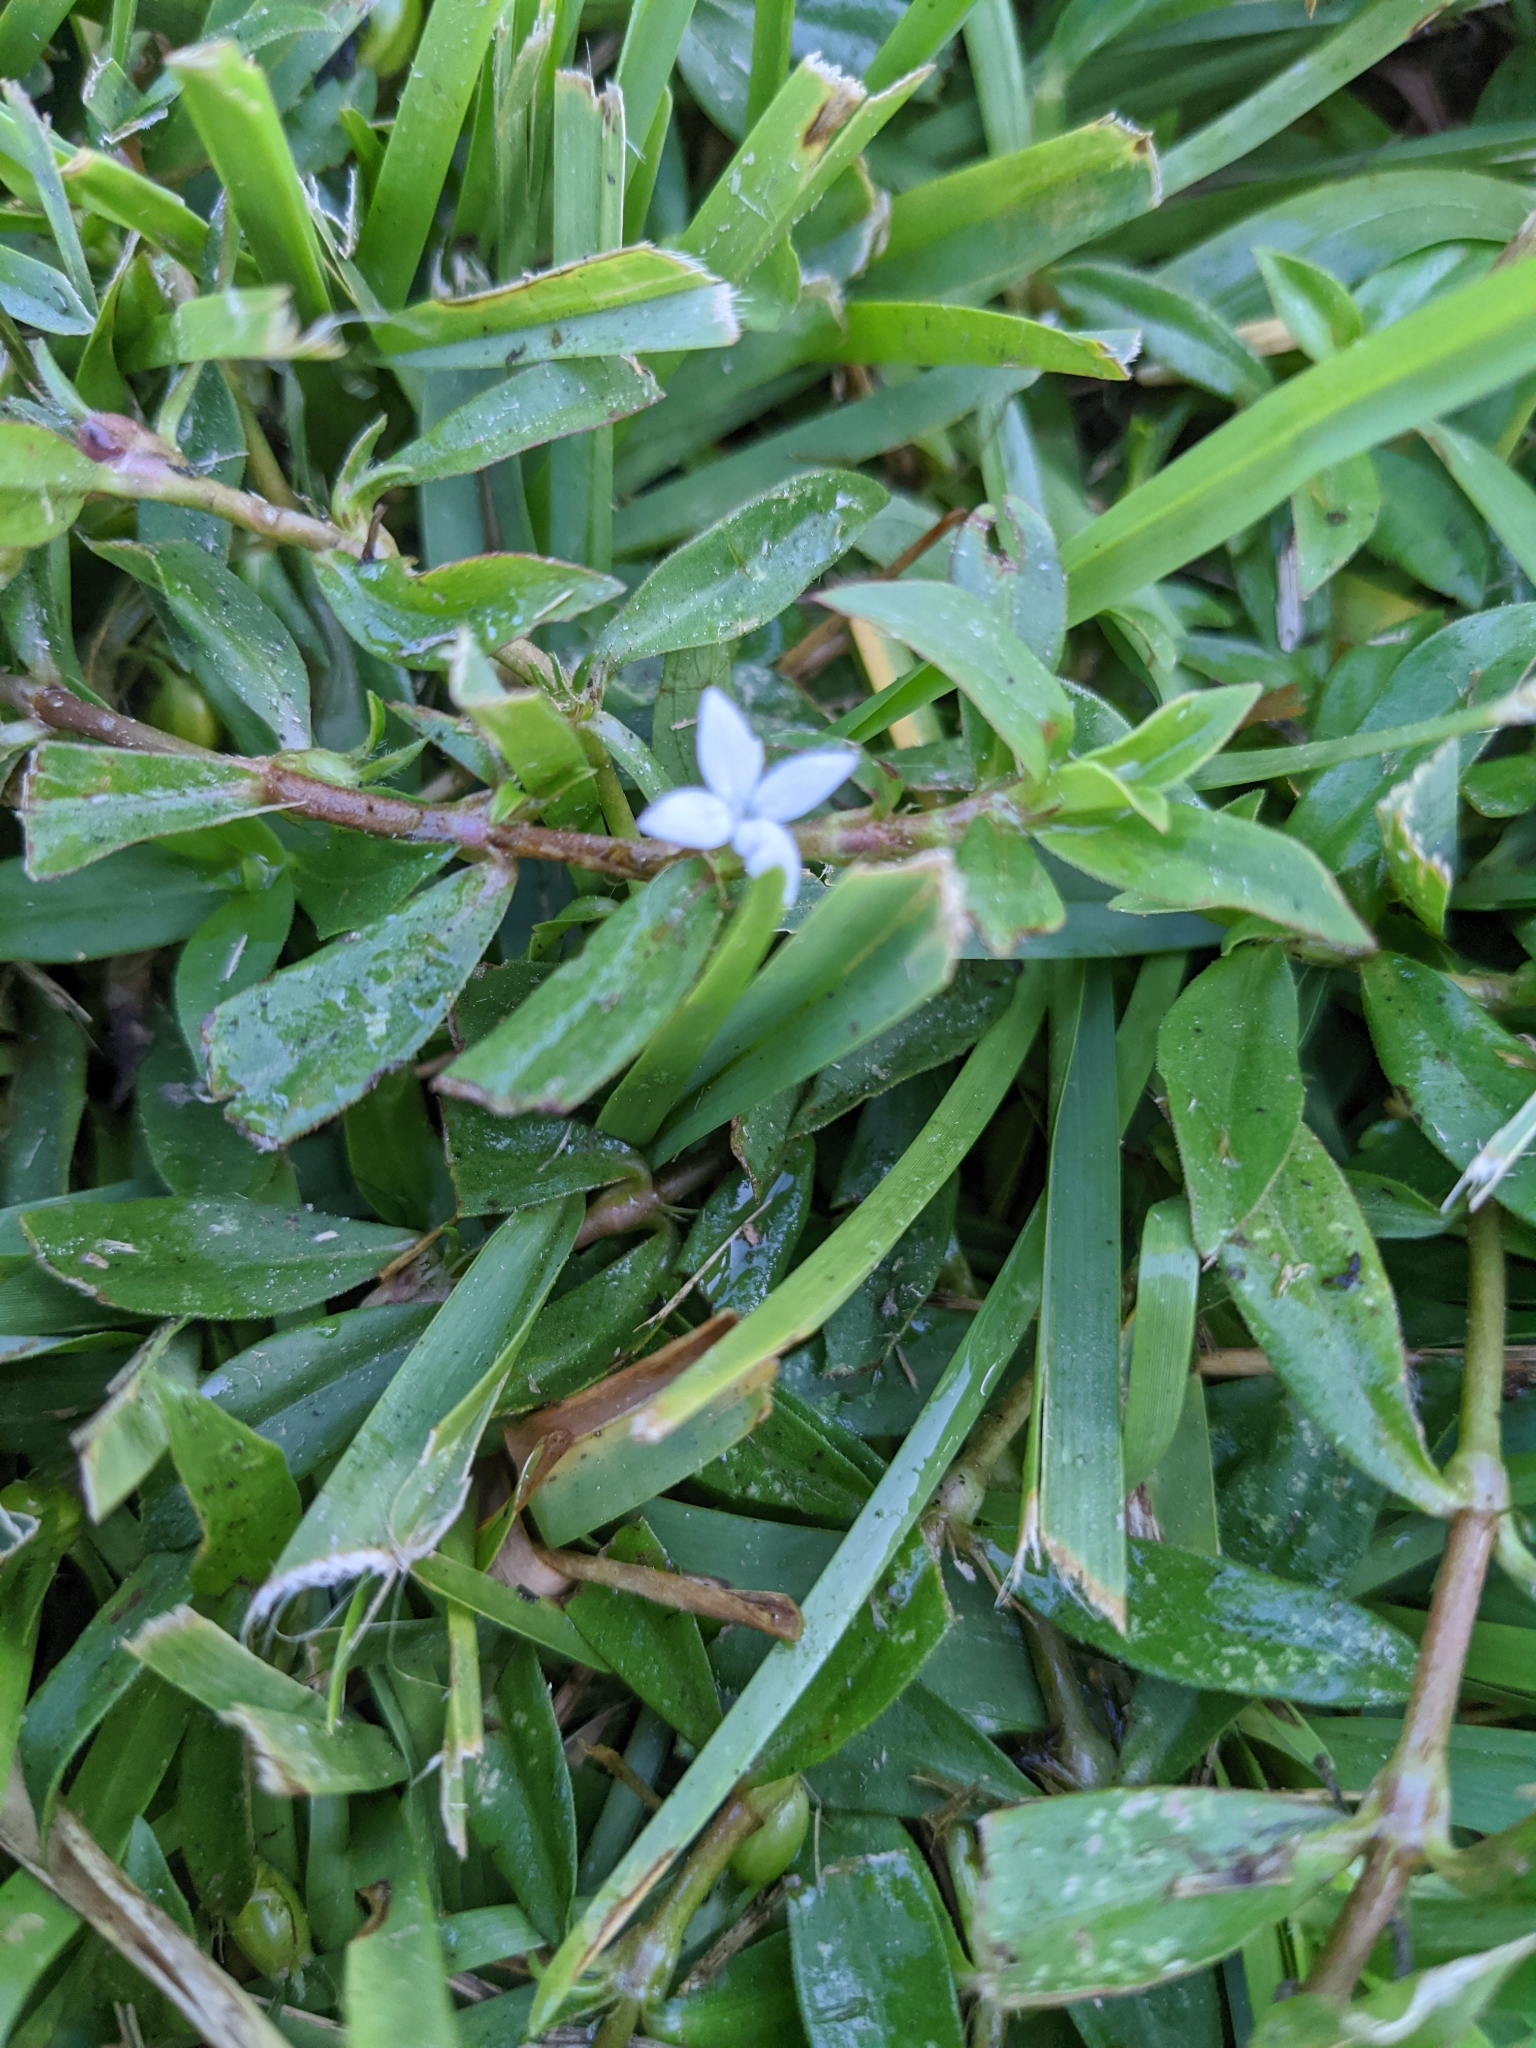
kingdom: Plantae
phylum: Tracheophyta
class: Magnoliopsida
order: Gentianales
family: Rubiaceae
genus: Diodia
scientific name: Diodia virginiana
